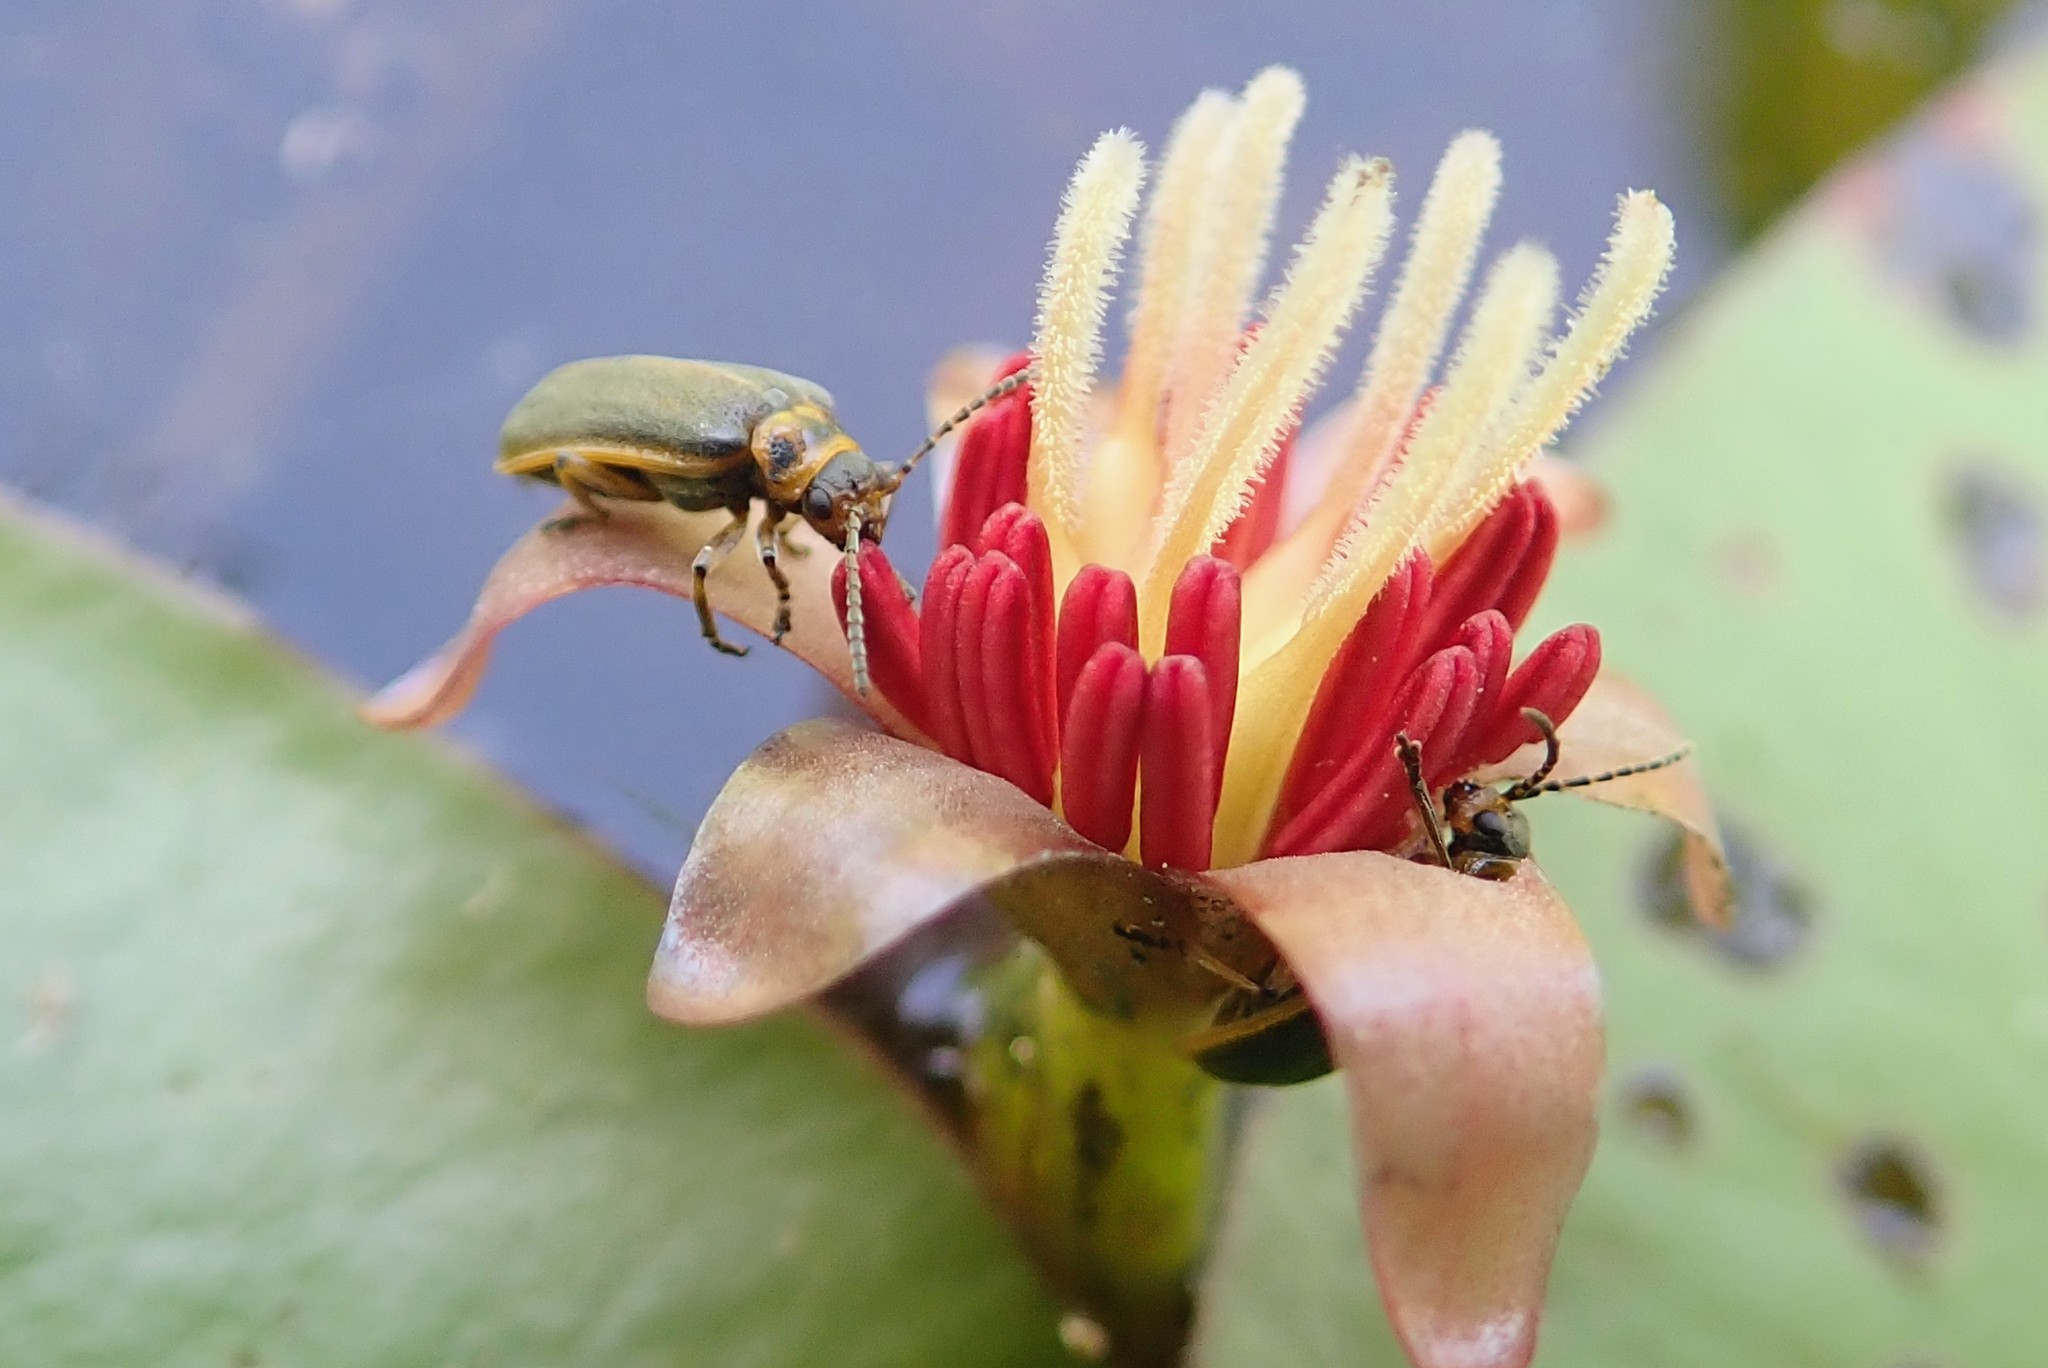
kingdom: Animalia
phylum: Arthropoda
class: Insecta
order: Coleoptera
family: Chrysomelidae
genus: Galerucella
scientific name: Galerucella nymphaeae
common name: Leaf beetle
